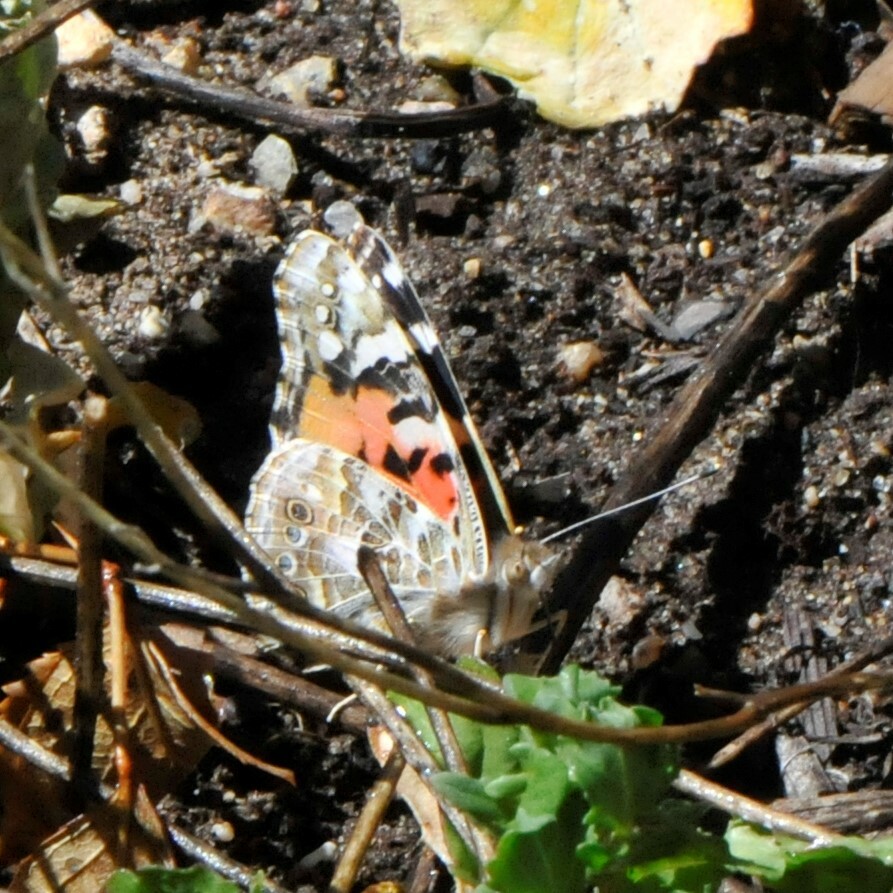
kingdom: Animalia
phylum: Arthropoda
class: Insecta
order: Lepidoptera
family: Nymphalidae
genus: Vanessa
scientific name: Vanessa cardui
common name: Painted lady
